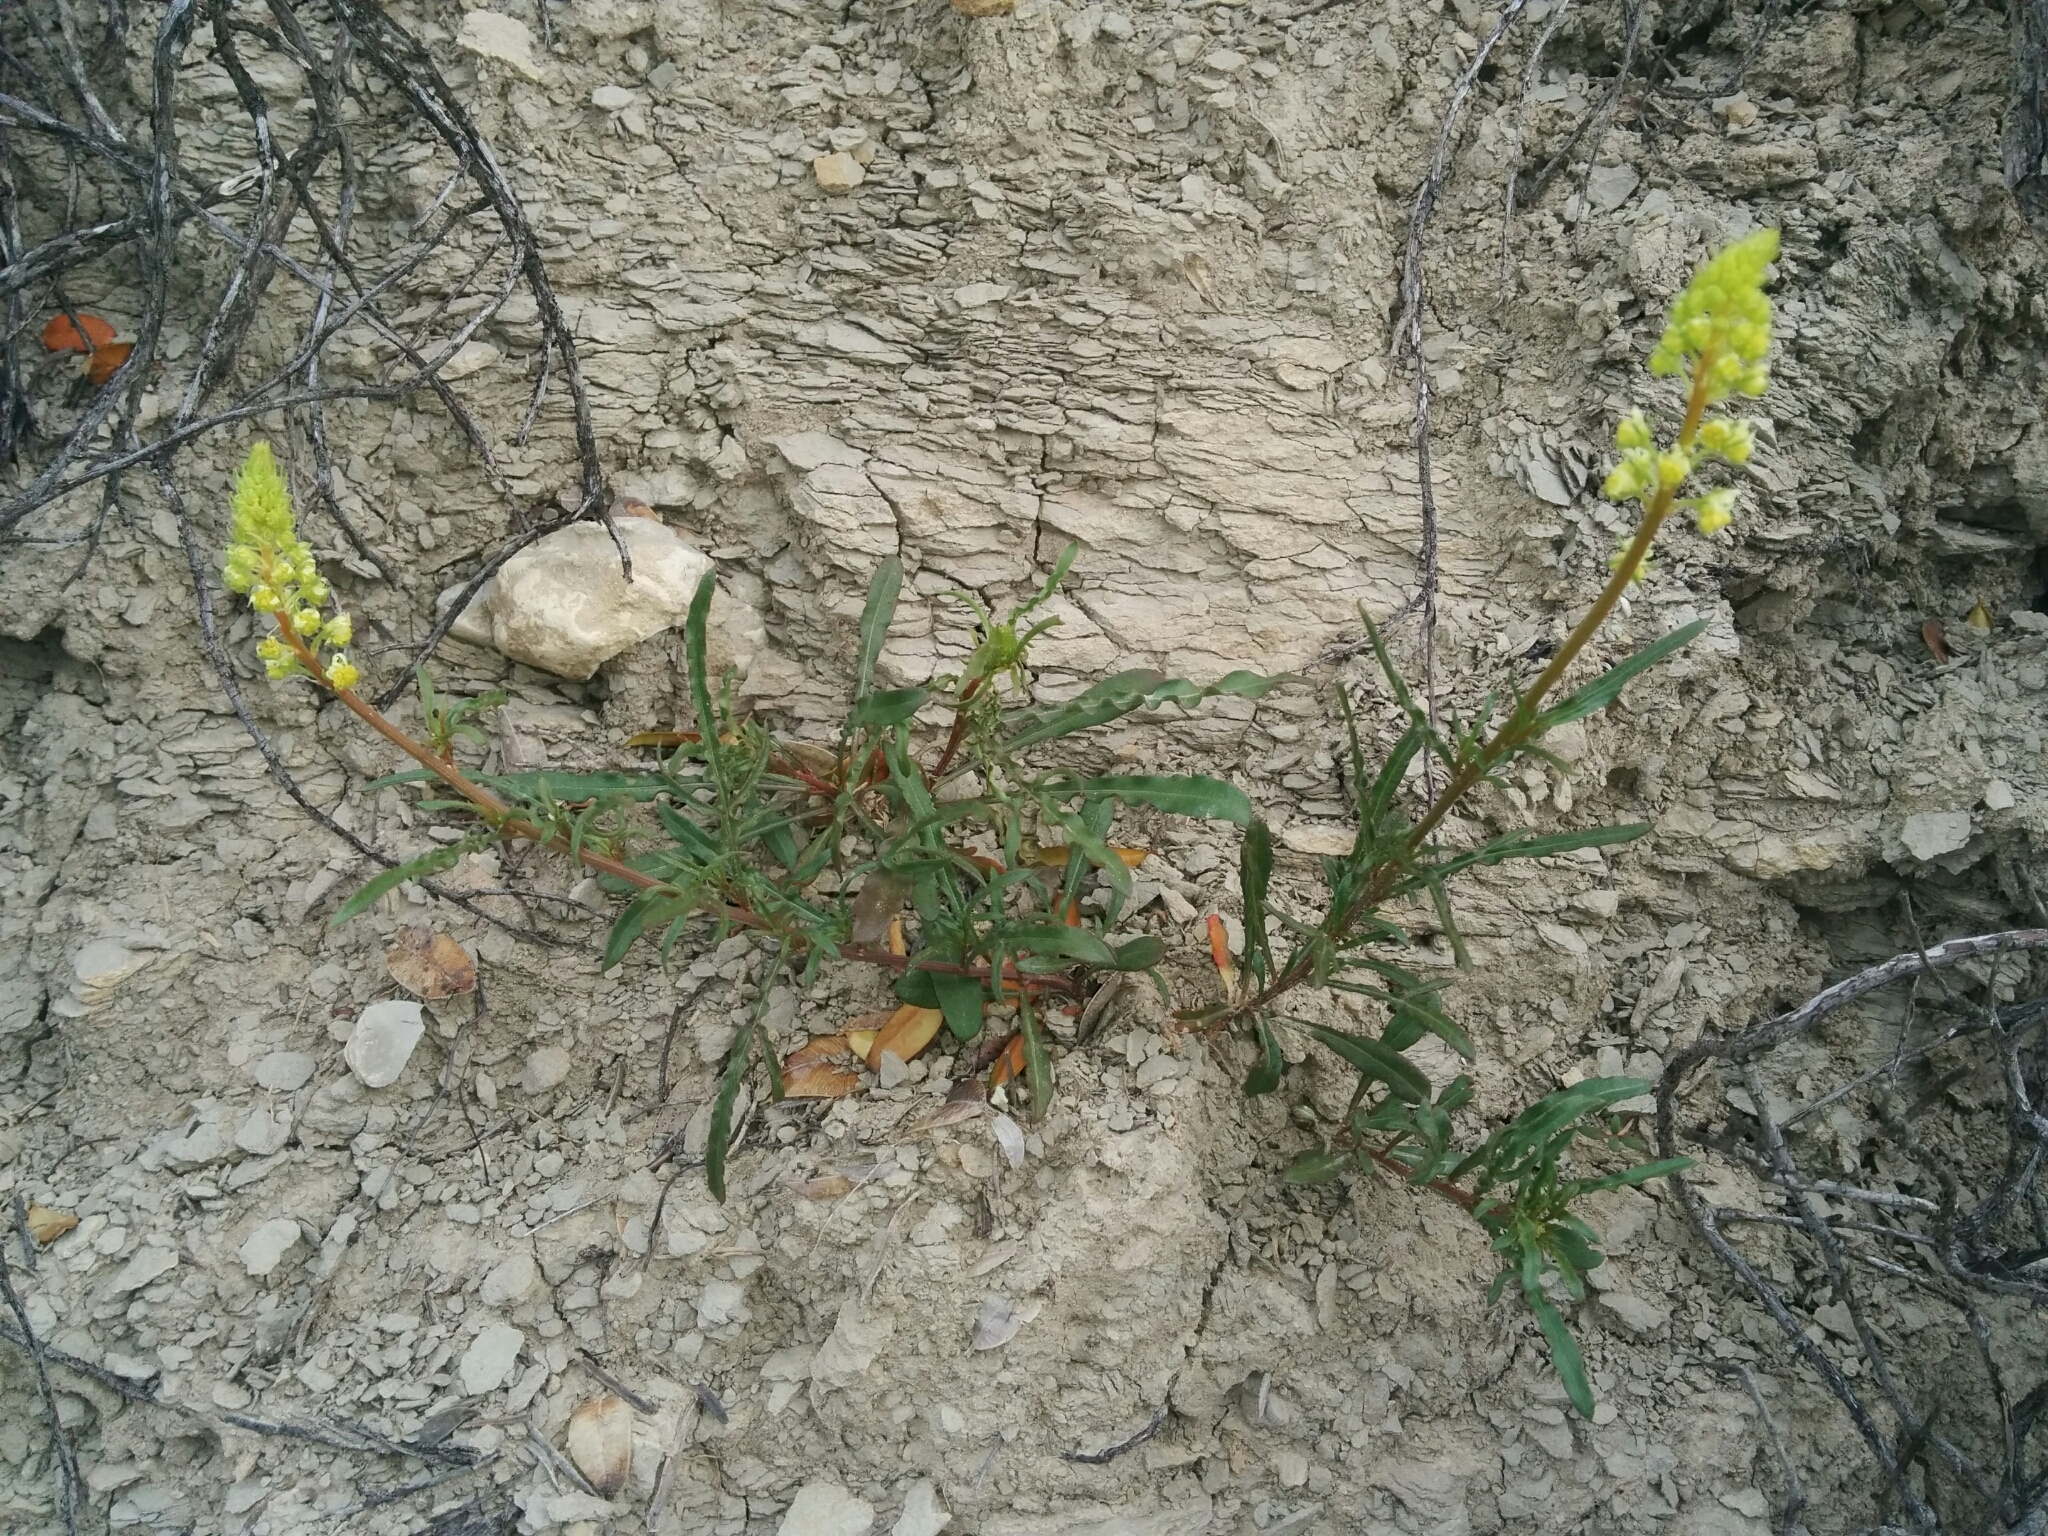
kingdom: Plantae
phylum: Tracheophyta
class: Magnoliopsida
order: Brassicales
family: Resedaceae
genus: Reseda
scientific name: Reseda lutea
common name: Wild mignonette
